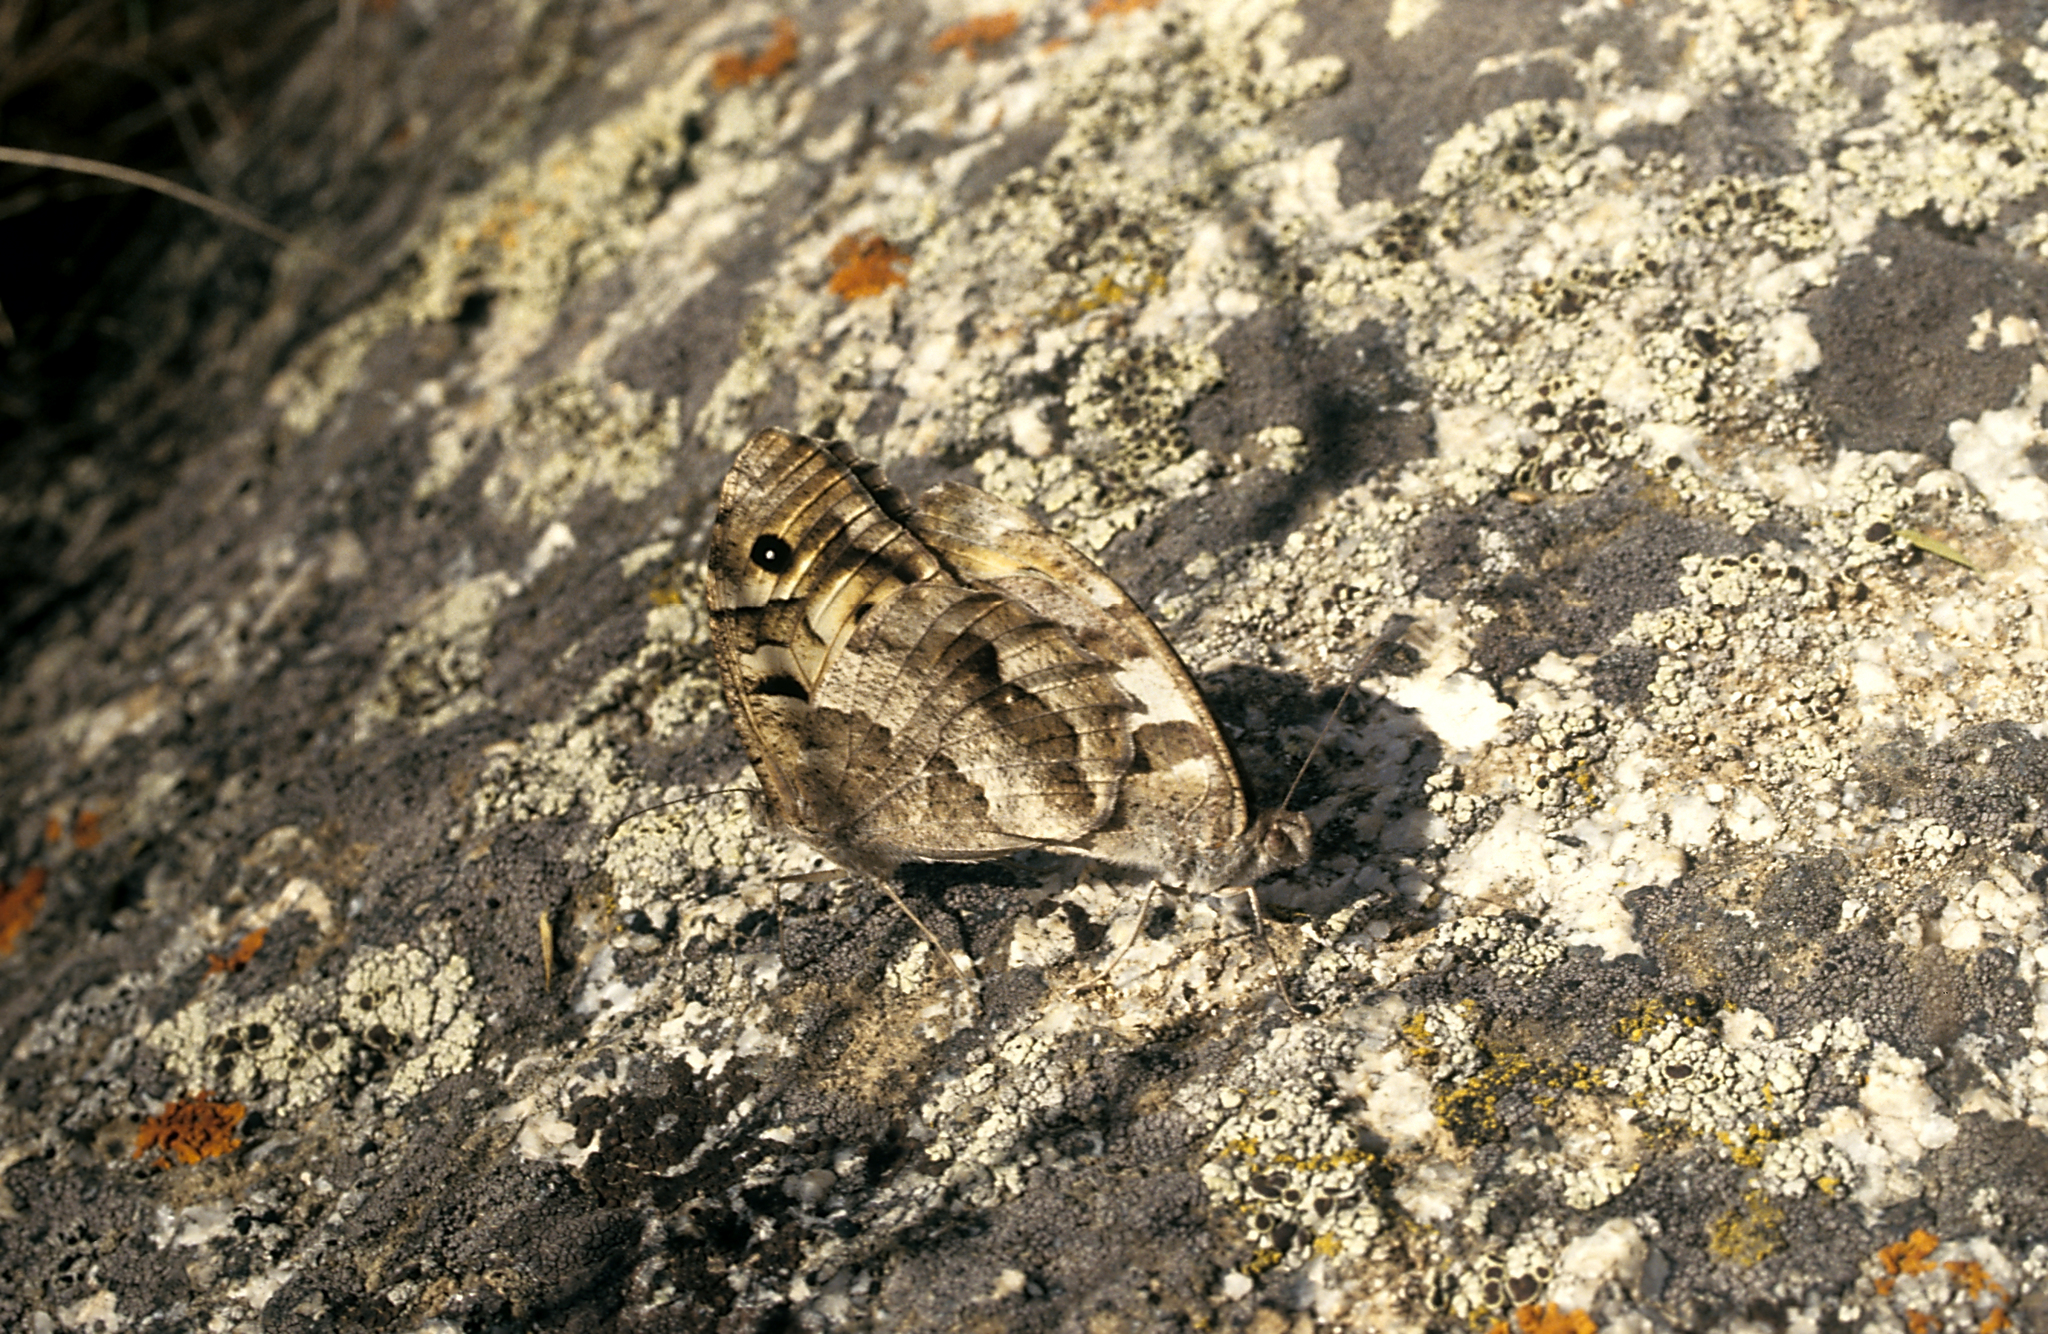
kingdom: Animalia
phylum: Arthropoda
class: Insecta
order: Lepidoptera
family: Nymphalidae
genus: Satyrus
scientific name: Satyrus briseis
